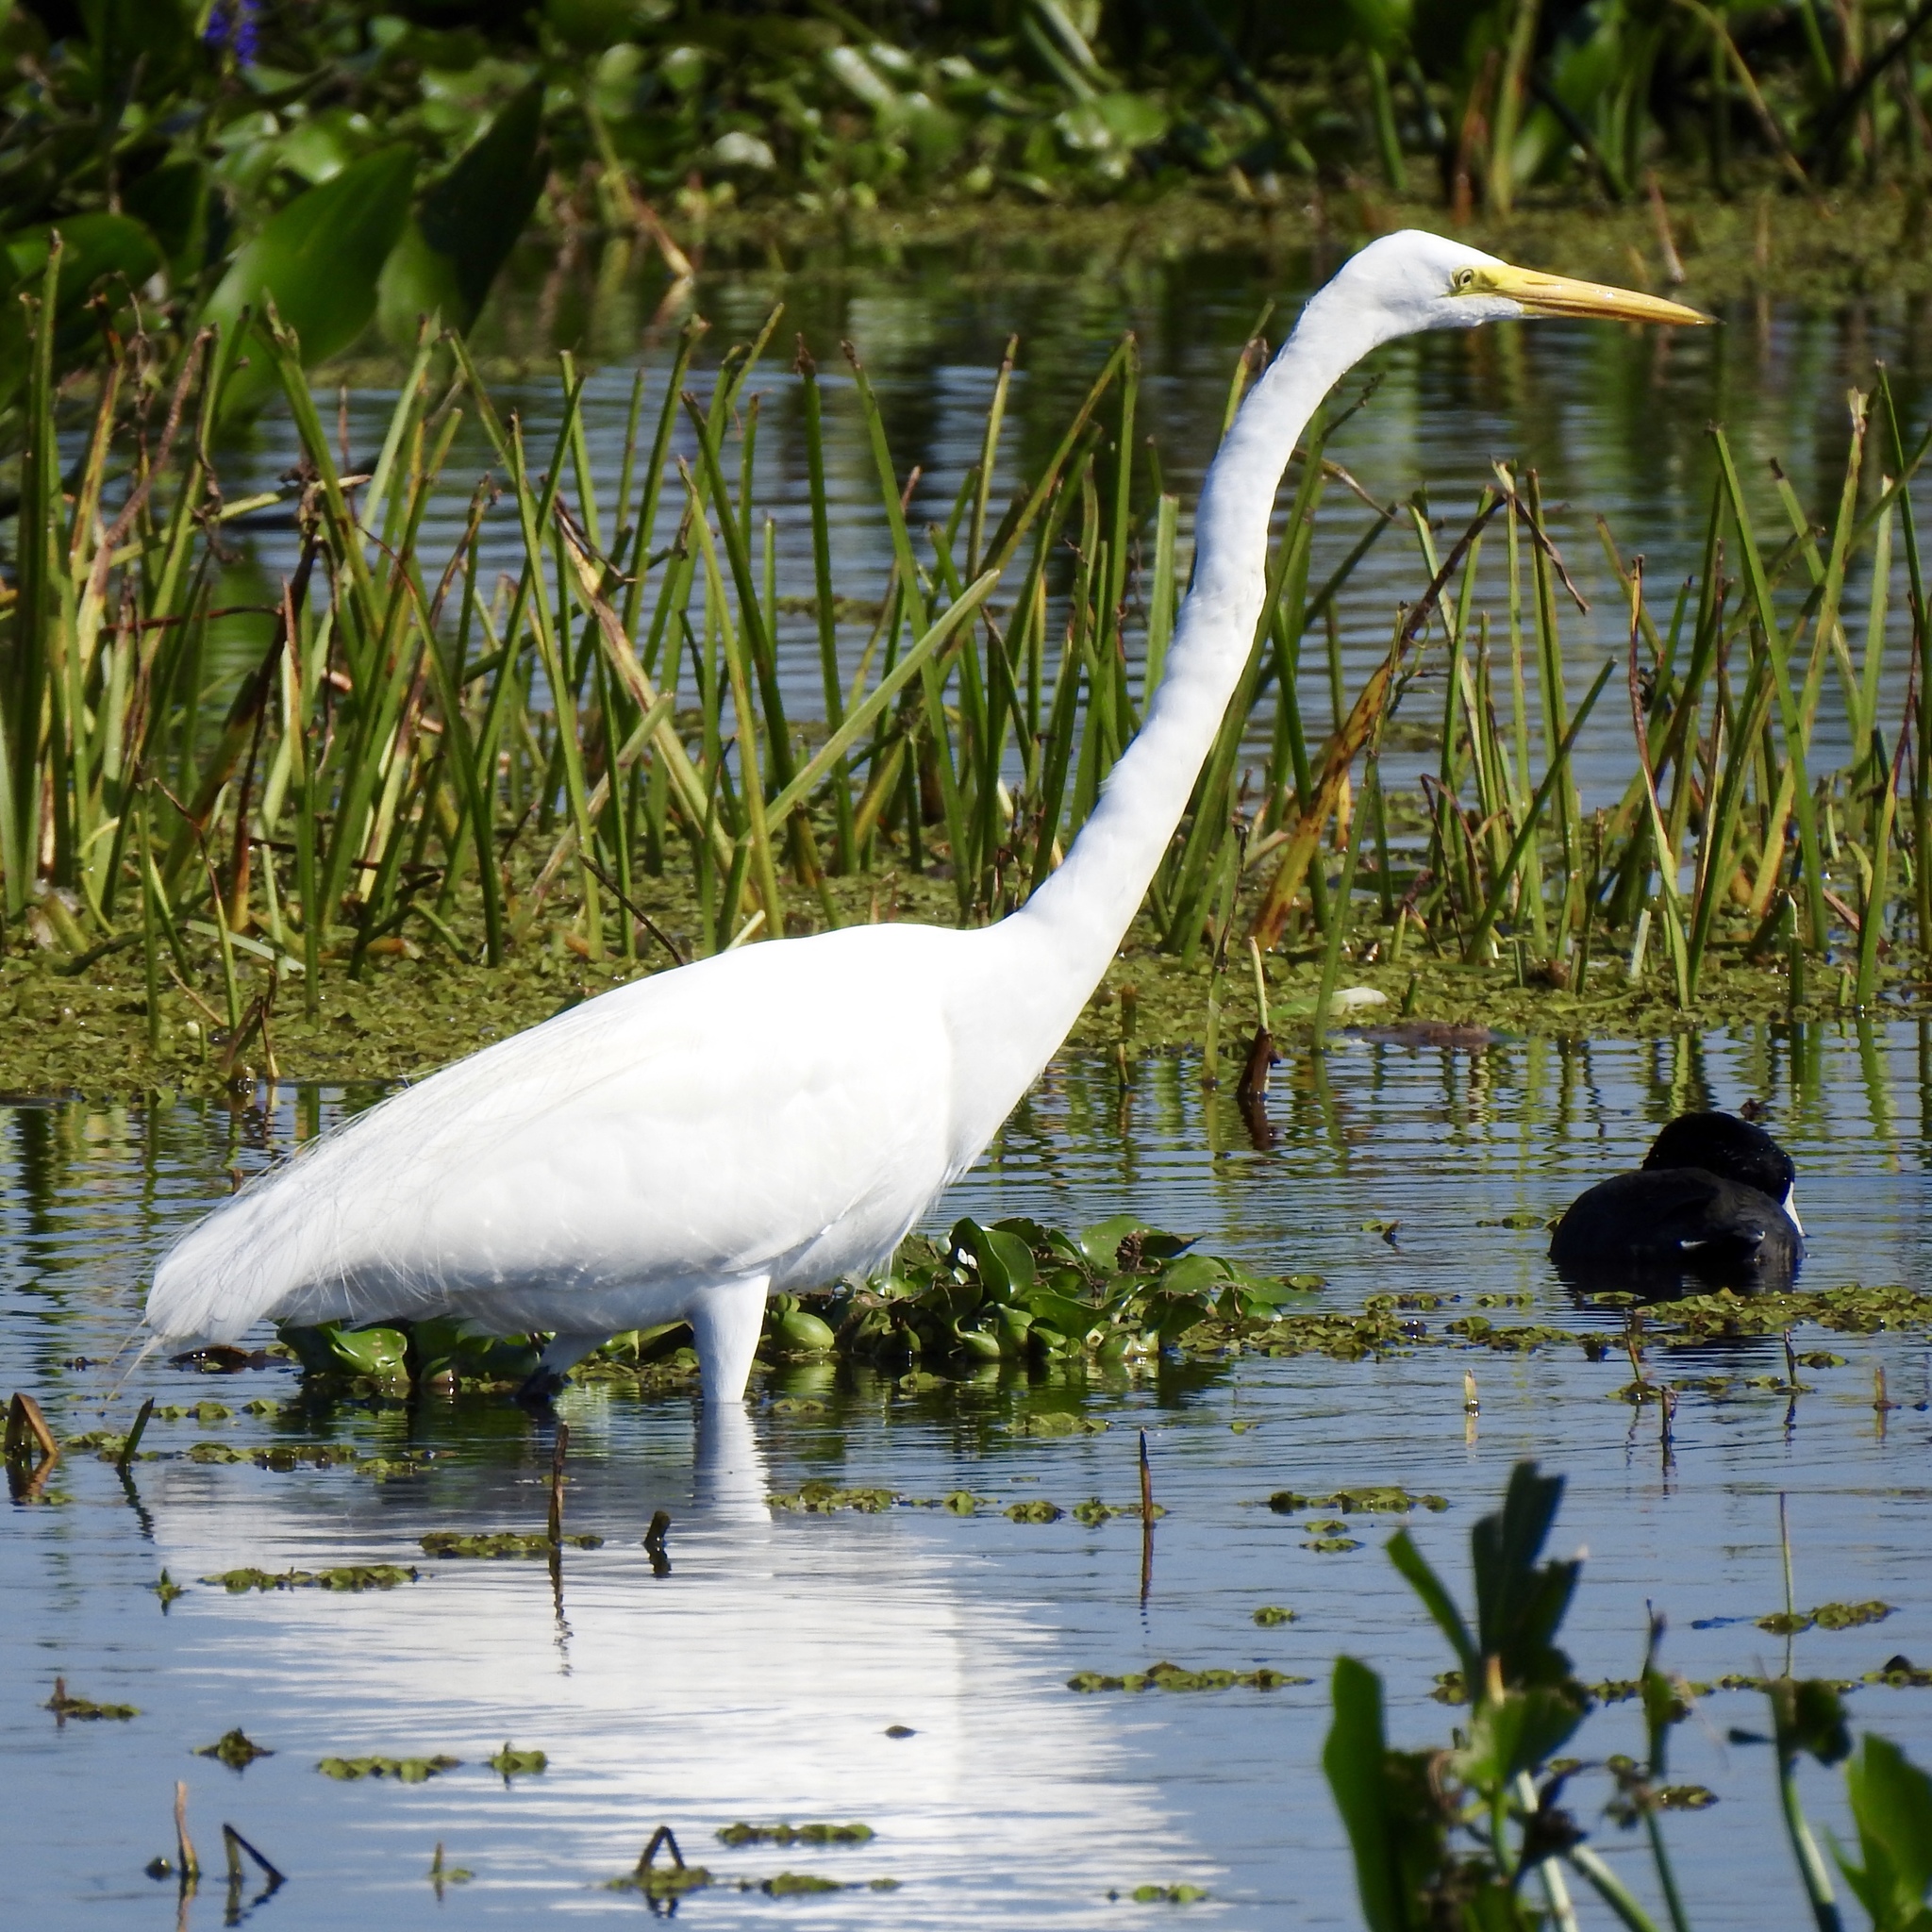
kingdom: Animalia
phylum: Chordata
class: Aves
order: Pelecaniformes
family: Ardeidae
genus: Ardea
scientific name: Ardea alba
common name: Great egret
